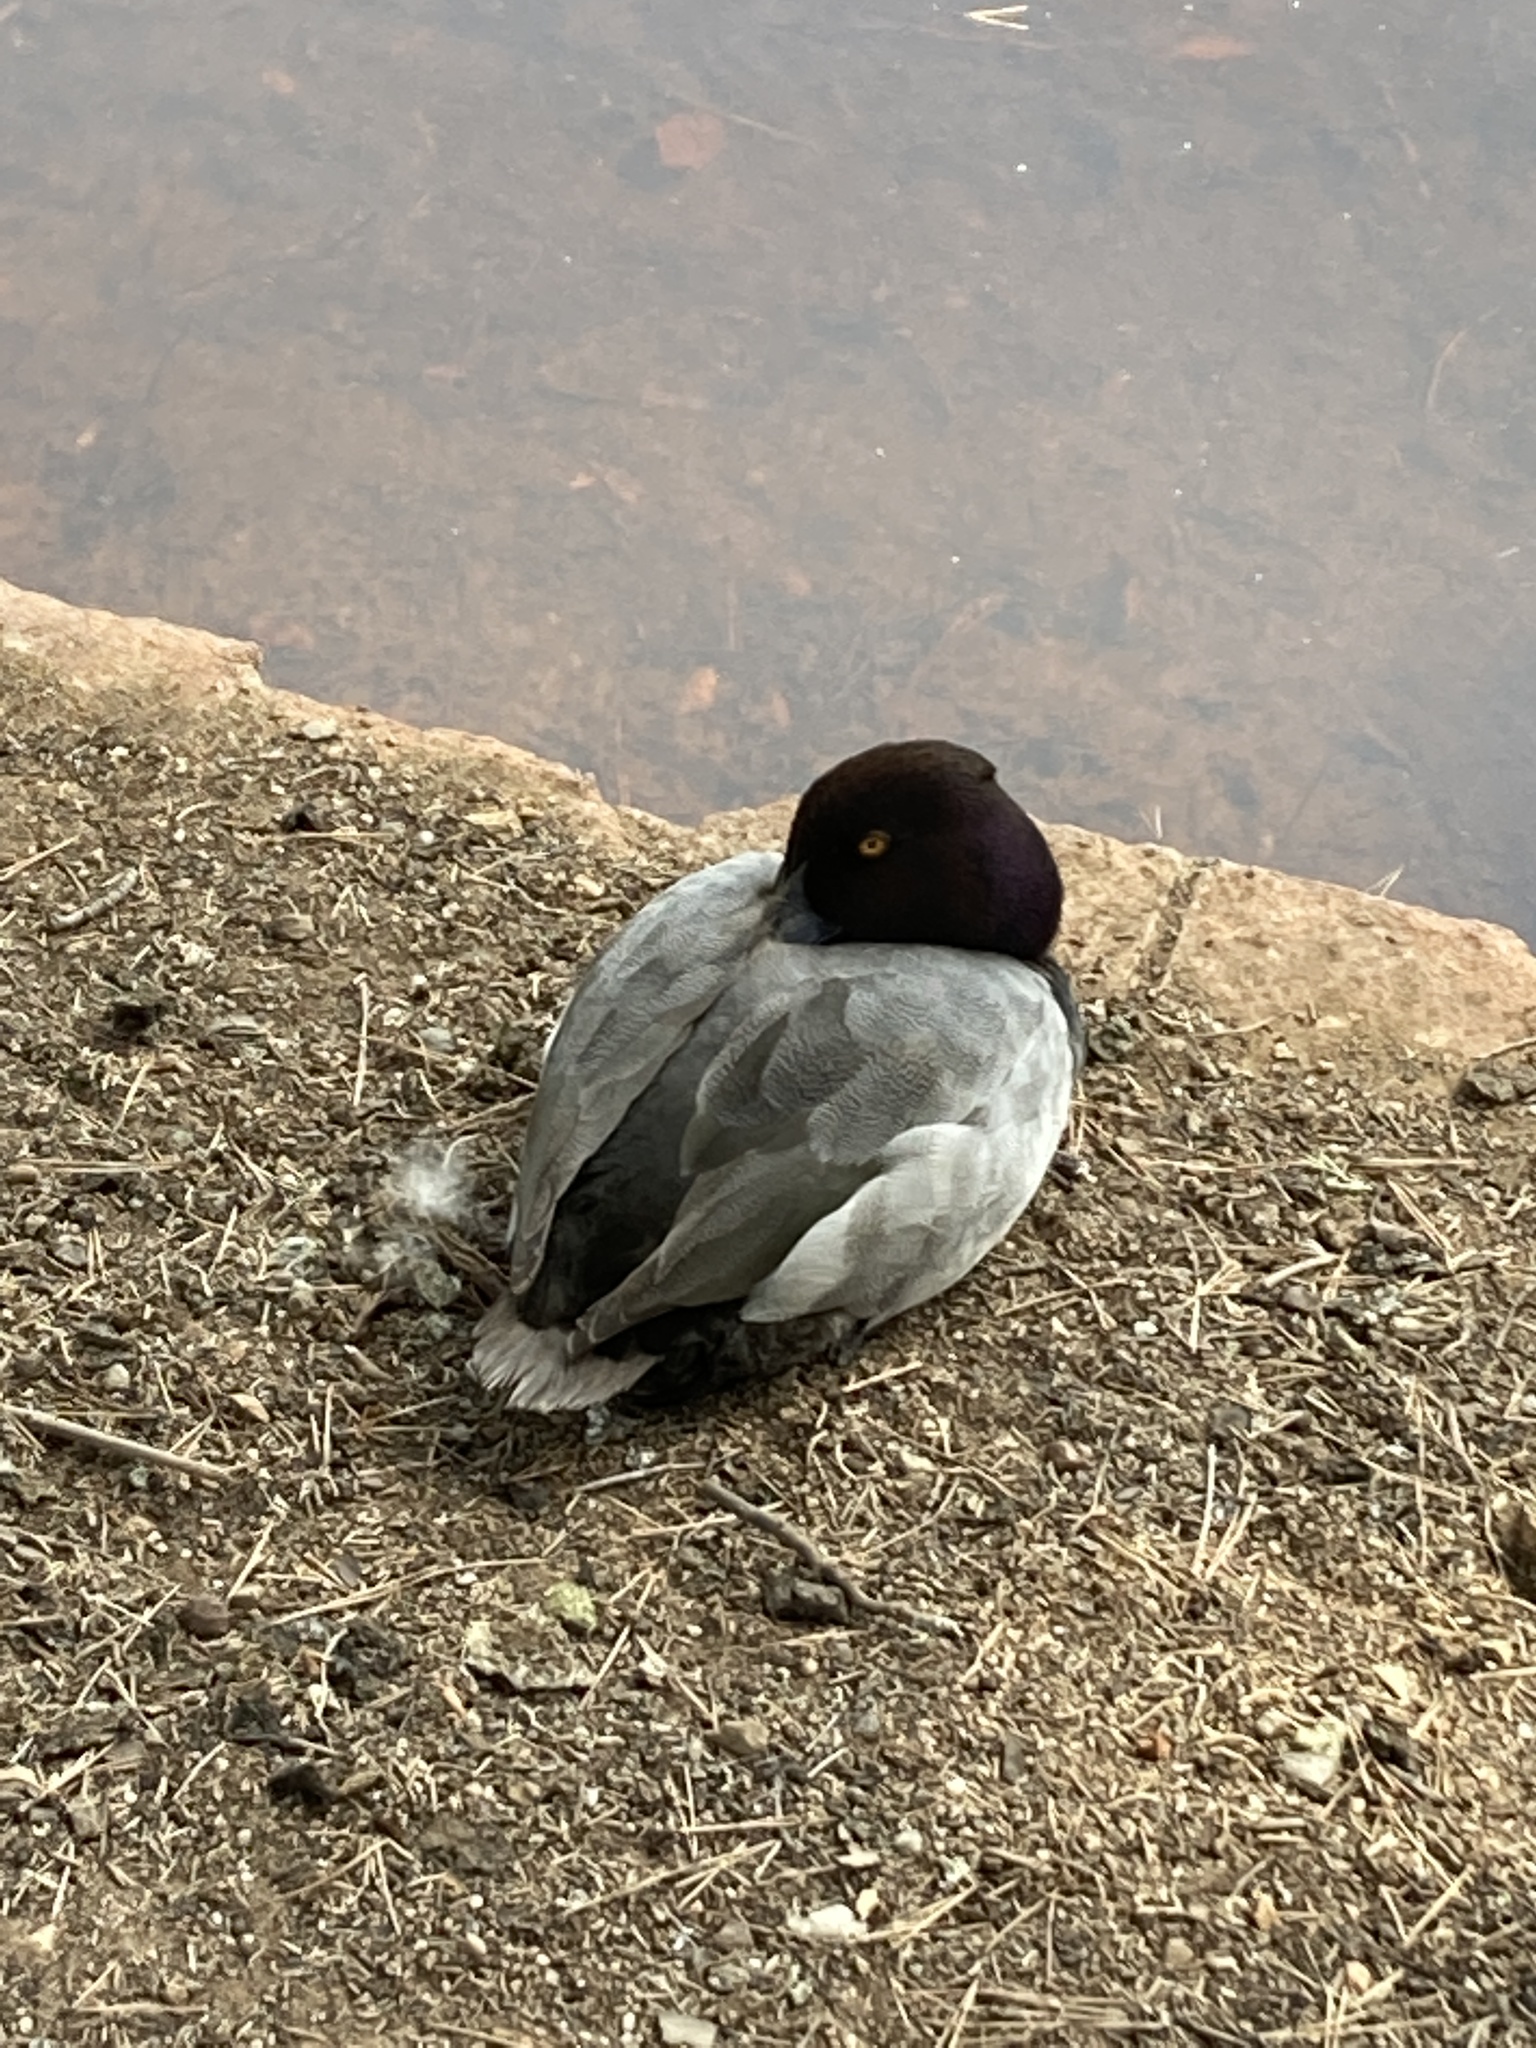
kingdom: Animalia
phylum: Chordata
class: Aves
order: Anseriformes
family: Anatidae
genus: Aythya
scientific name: Aythya
